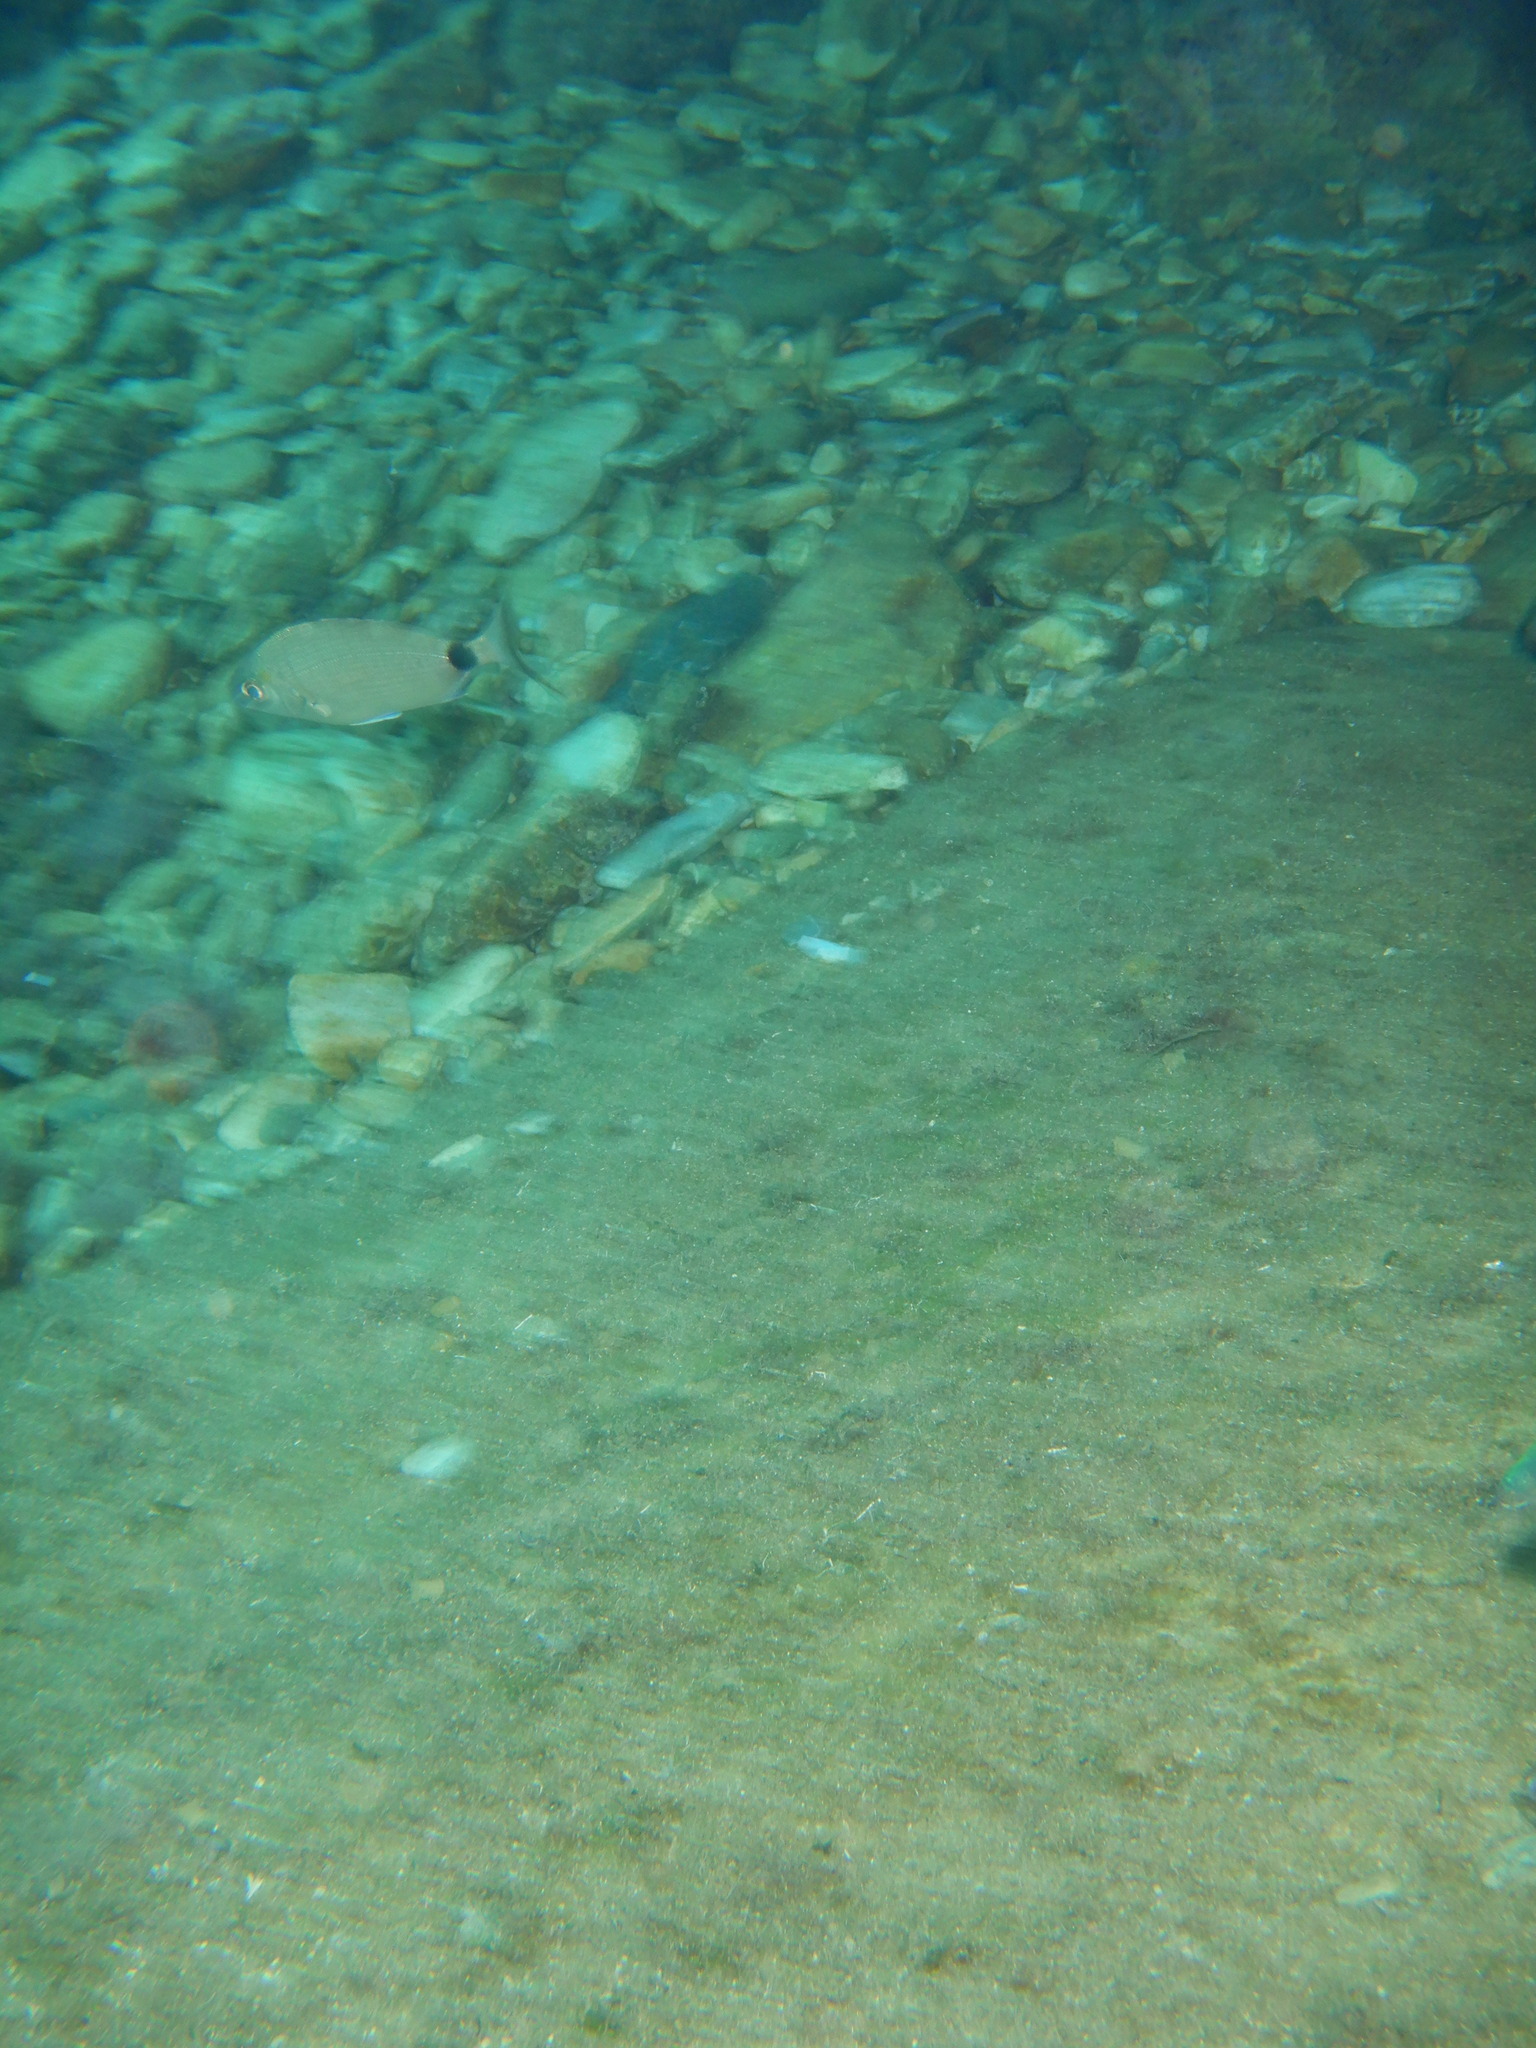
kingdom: Animalia
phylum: Chordata
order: Perciformes
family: Sparidae
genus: Diplodus
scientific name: Diplodus sargus
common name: White seabream
